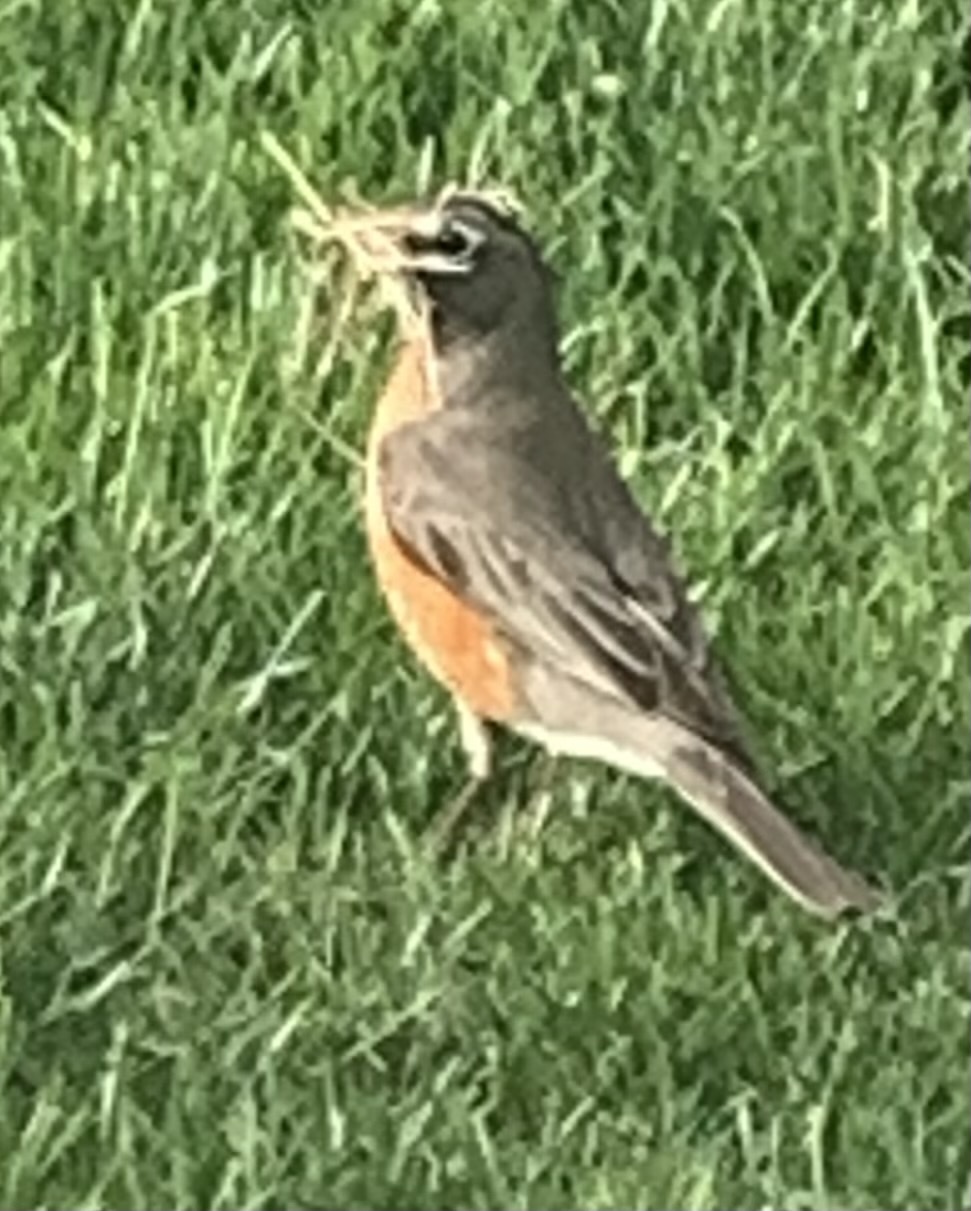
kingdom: Animalia
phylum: Chordata
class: Aves
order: Passeriformes
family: Turdidae
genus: Turdus
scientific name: Turdus migratorius
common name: American robin
